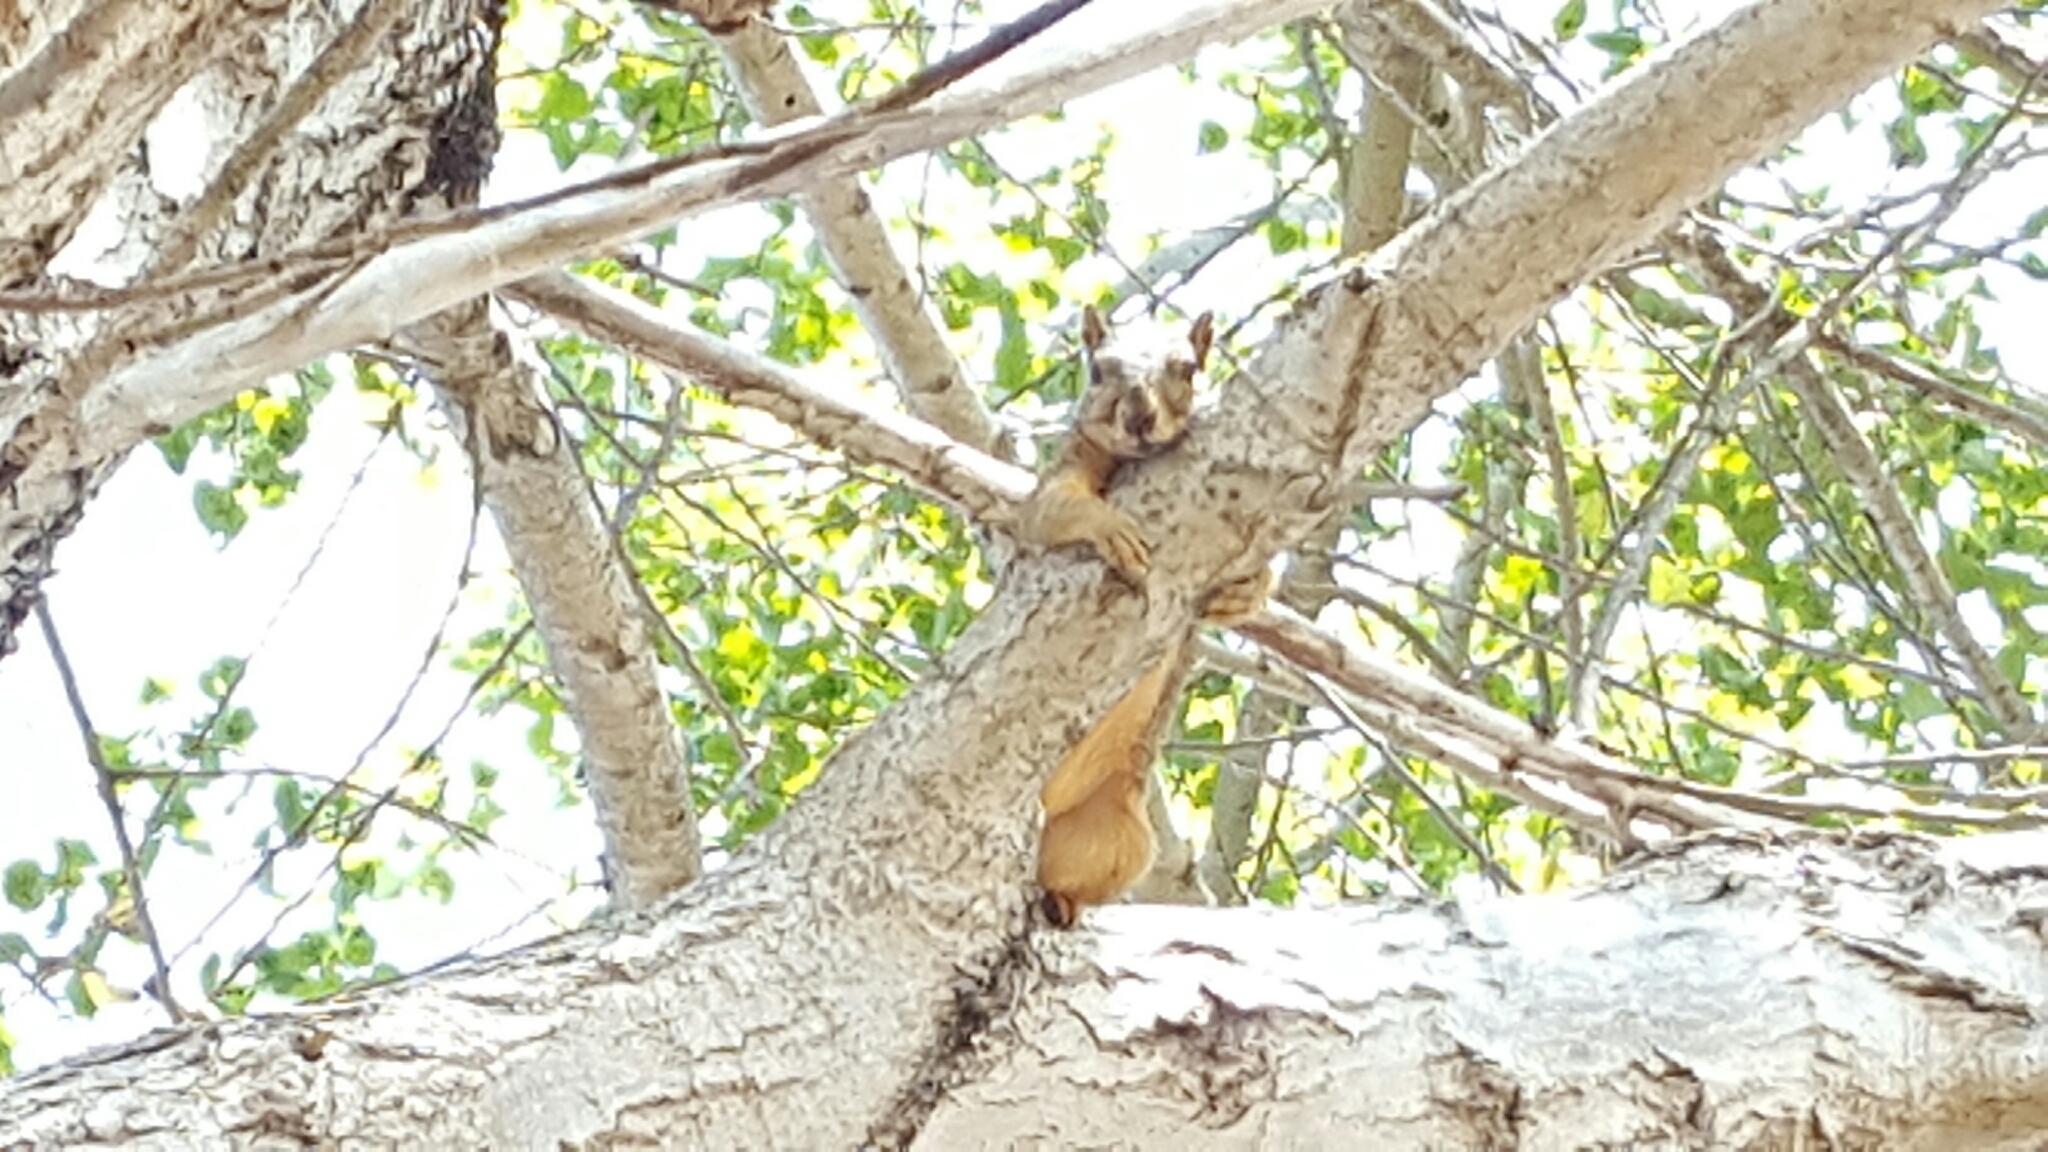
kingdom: Animalia
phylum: Chordata
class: Mammalia
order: Rodentia
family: Sciuridae
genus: Sciurus
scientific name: Sciurus niger
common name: Fox squirrel
